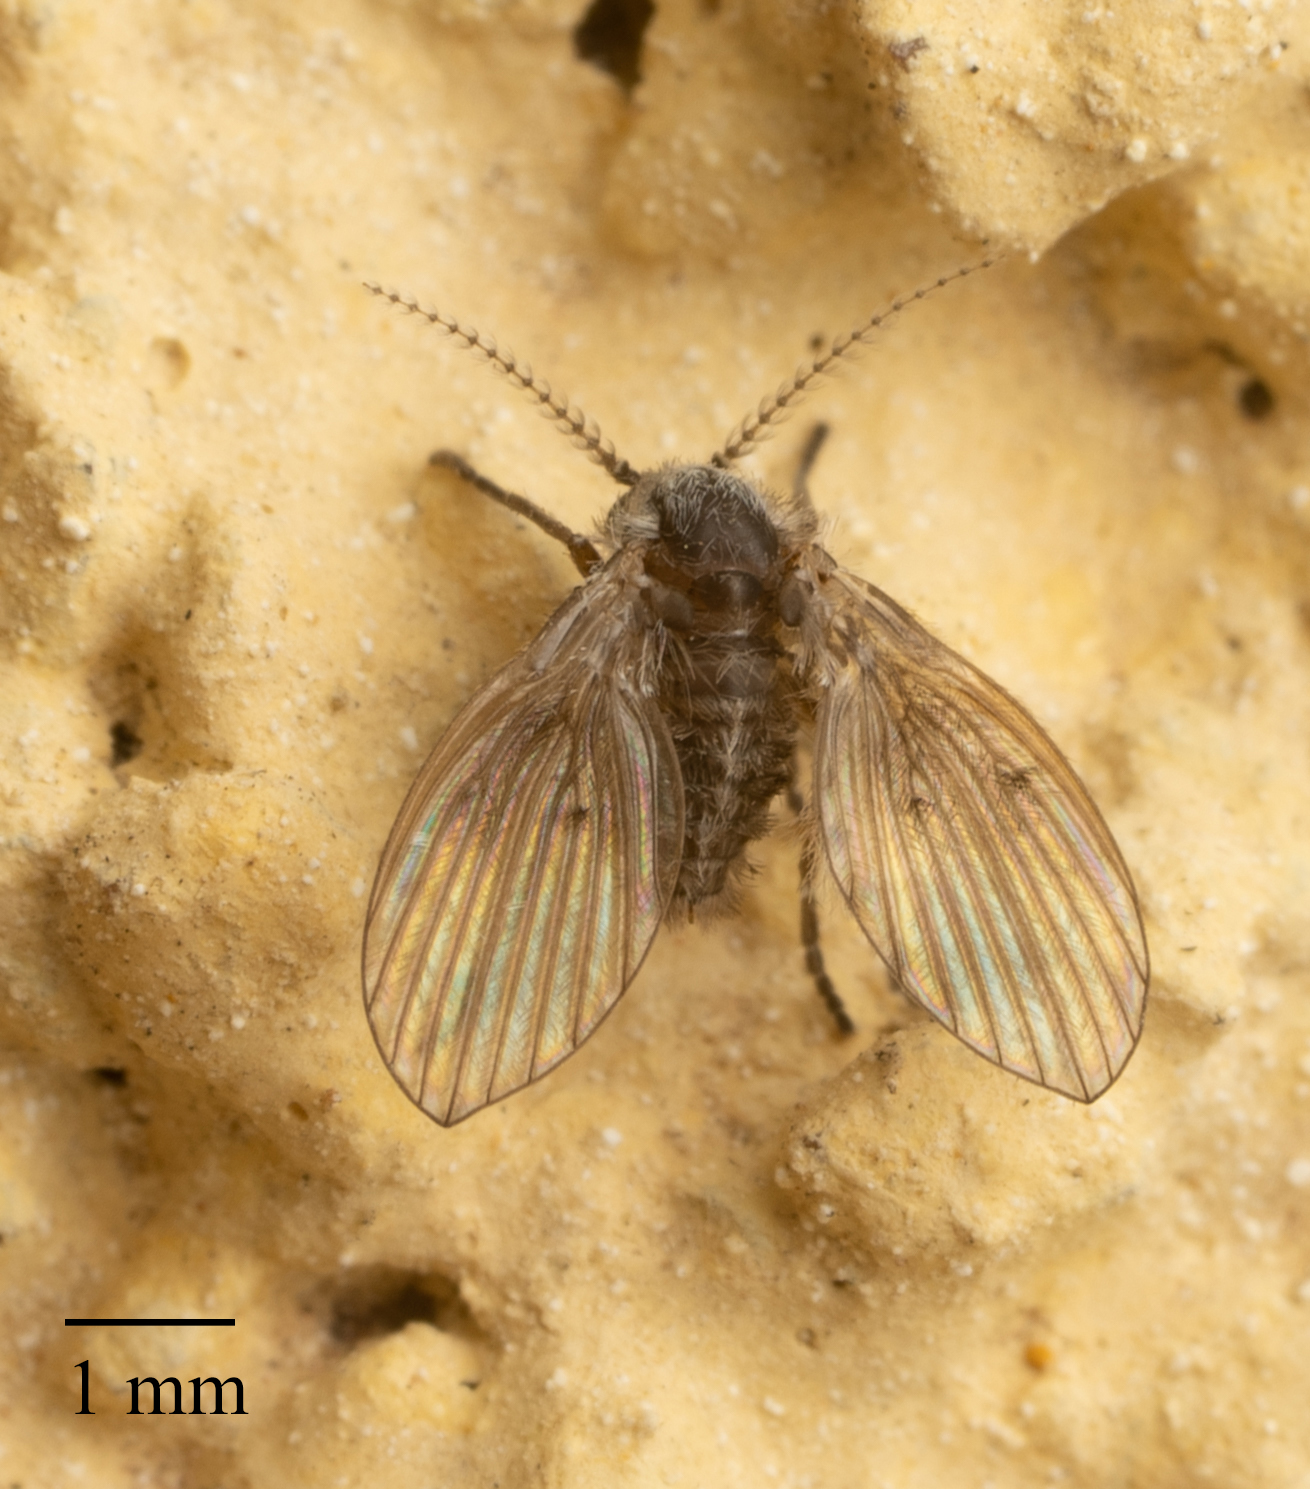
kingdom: Animalia
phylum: Arthropoda
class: Insecta
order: Diptera
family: Psychodidae
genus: Clogmia
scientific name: Clogmia albipunctatus
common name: White-spotted moth fly
